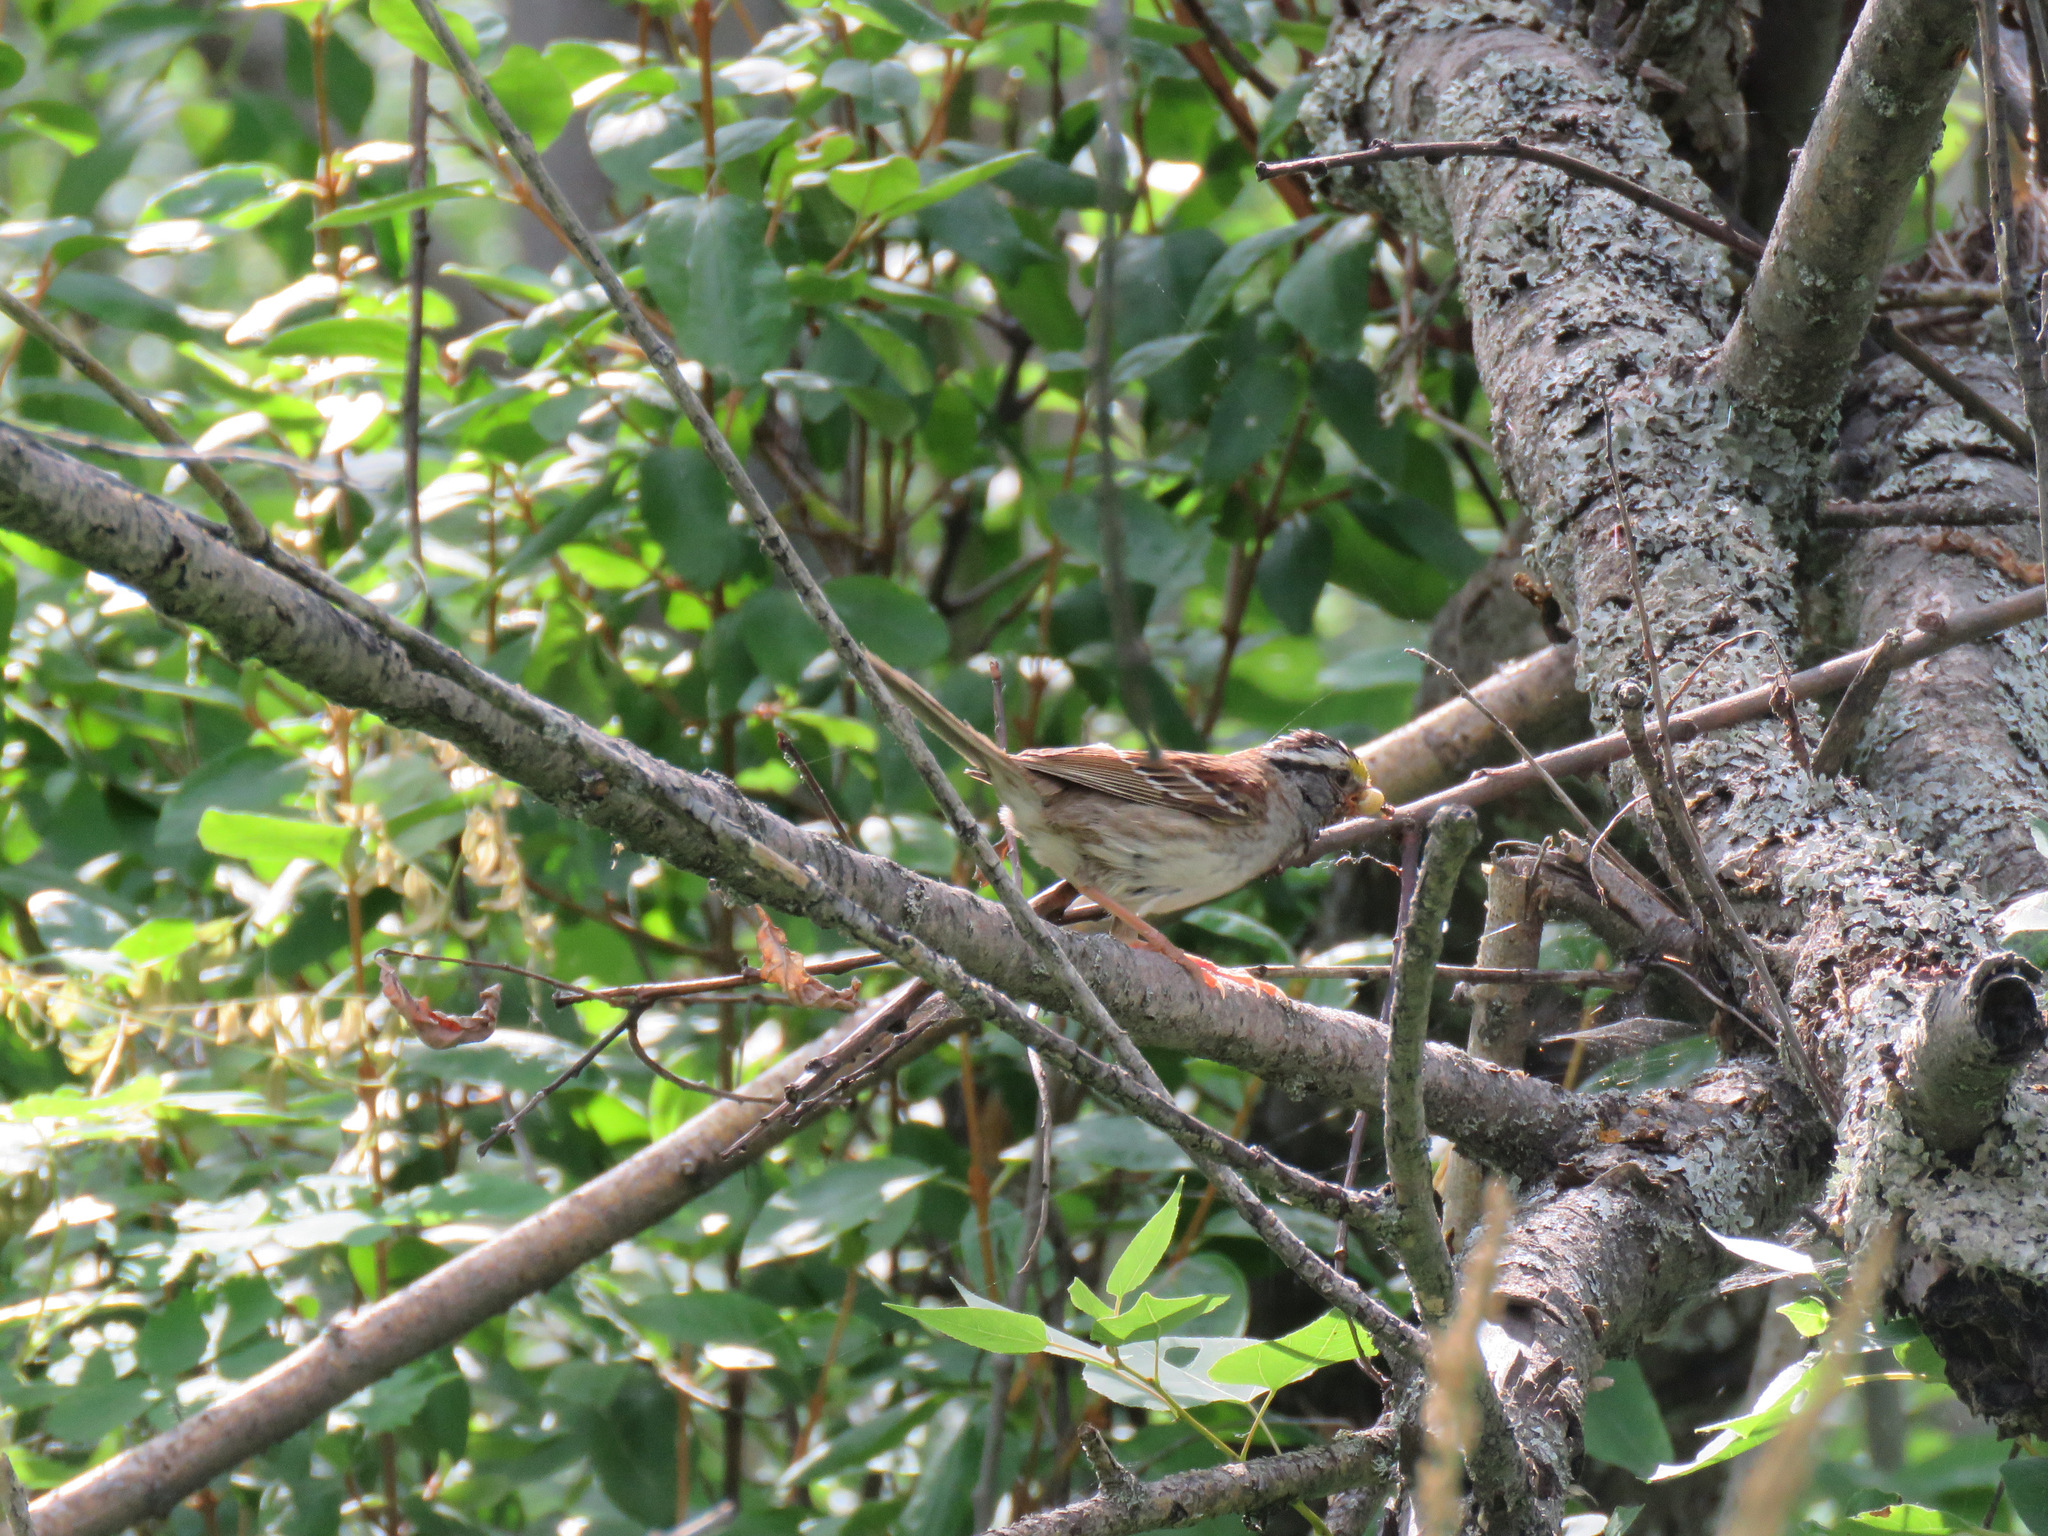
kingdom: Animalia
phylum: Chordata
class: Aves
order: Passeriformes
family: Passerellidae
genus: Zonotrichia
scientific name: Zonotrichia albicollis
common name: White-throated sparrow
